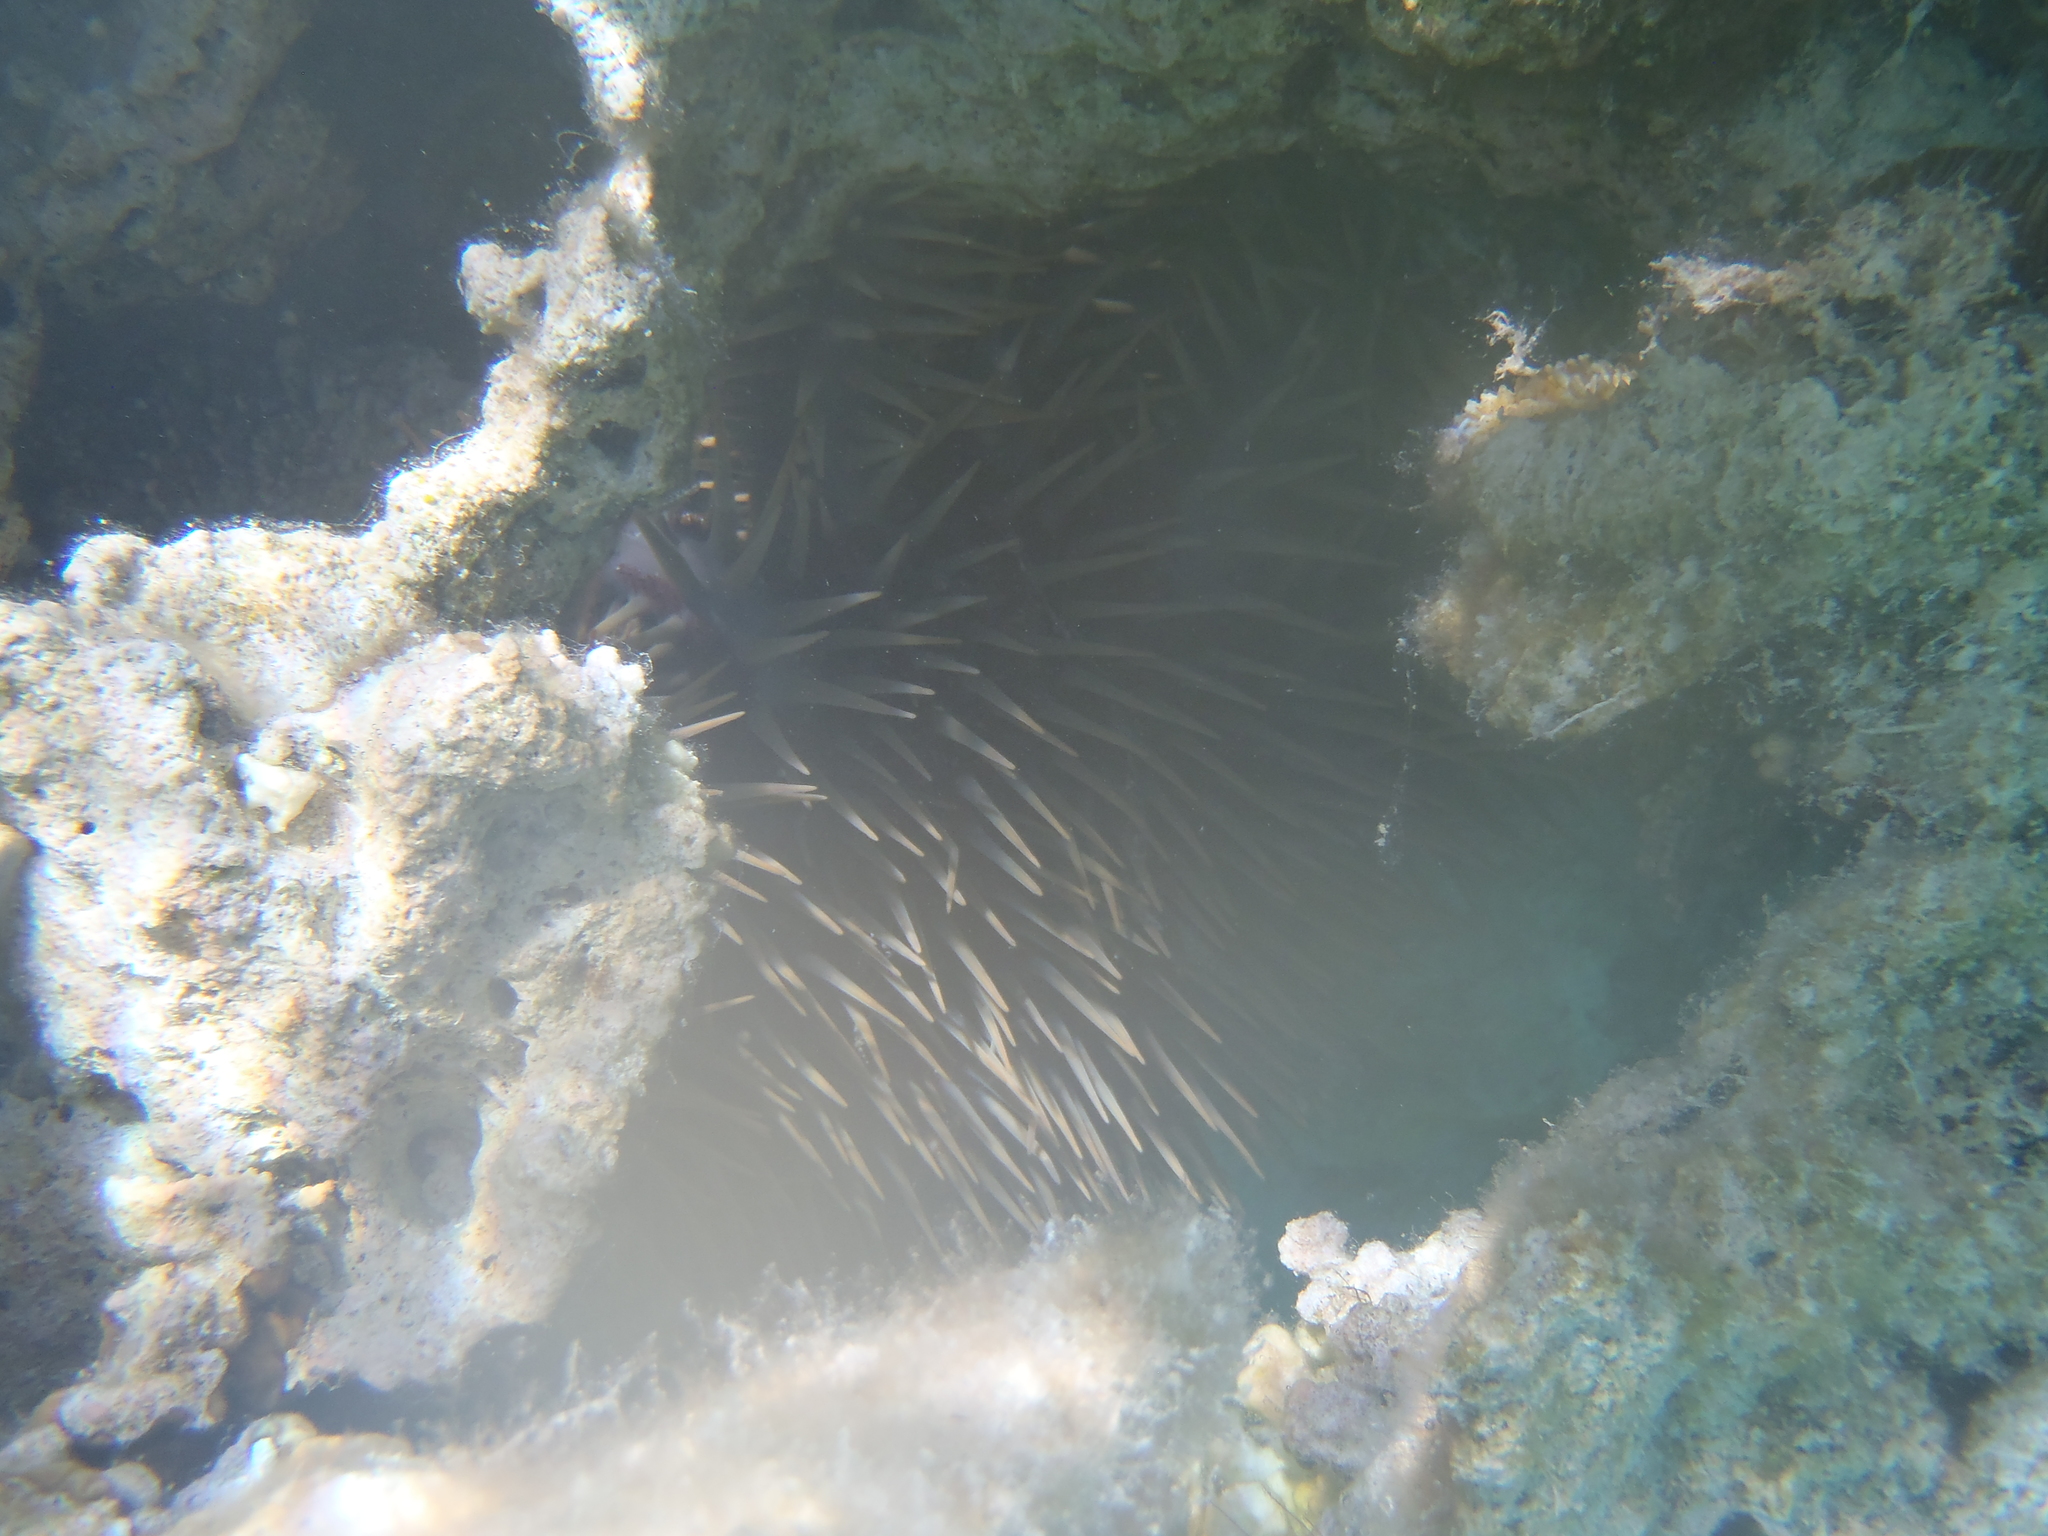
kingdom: Animalia
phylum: Echinodermata
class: Asteroidea
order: Valvatida
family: Acanthasteridae
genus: Acanthaster
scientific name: Acanthaster planci
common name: Crown-of-thorns
